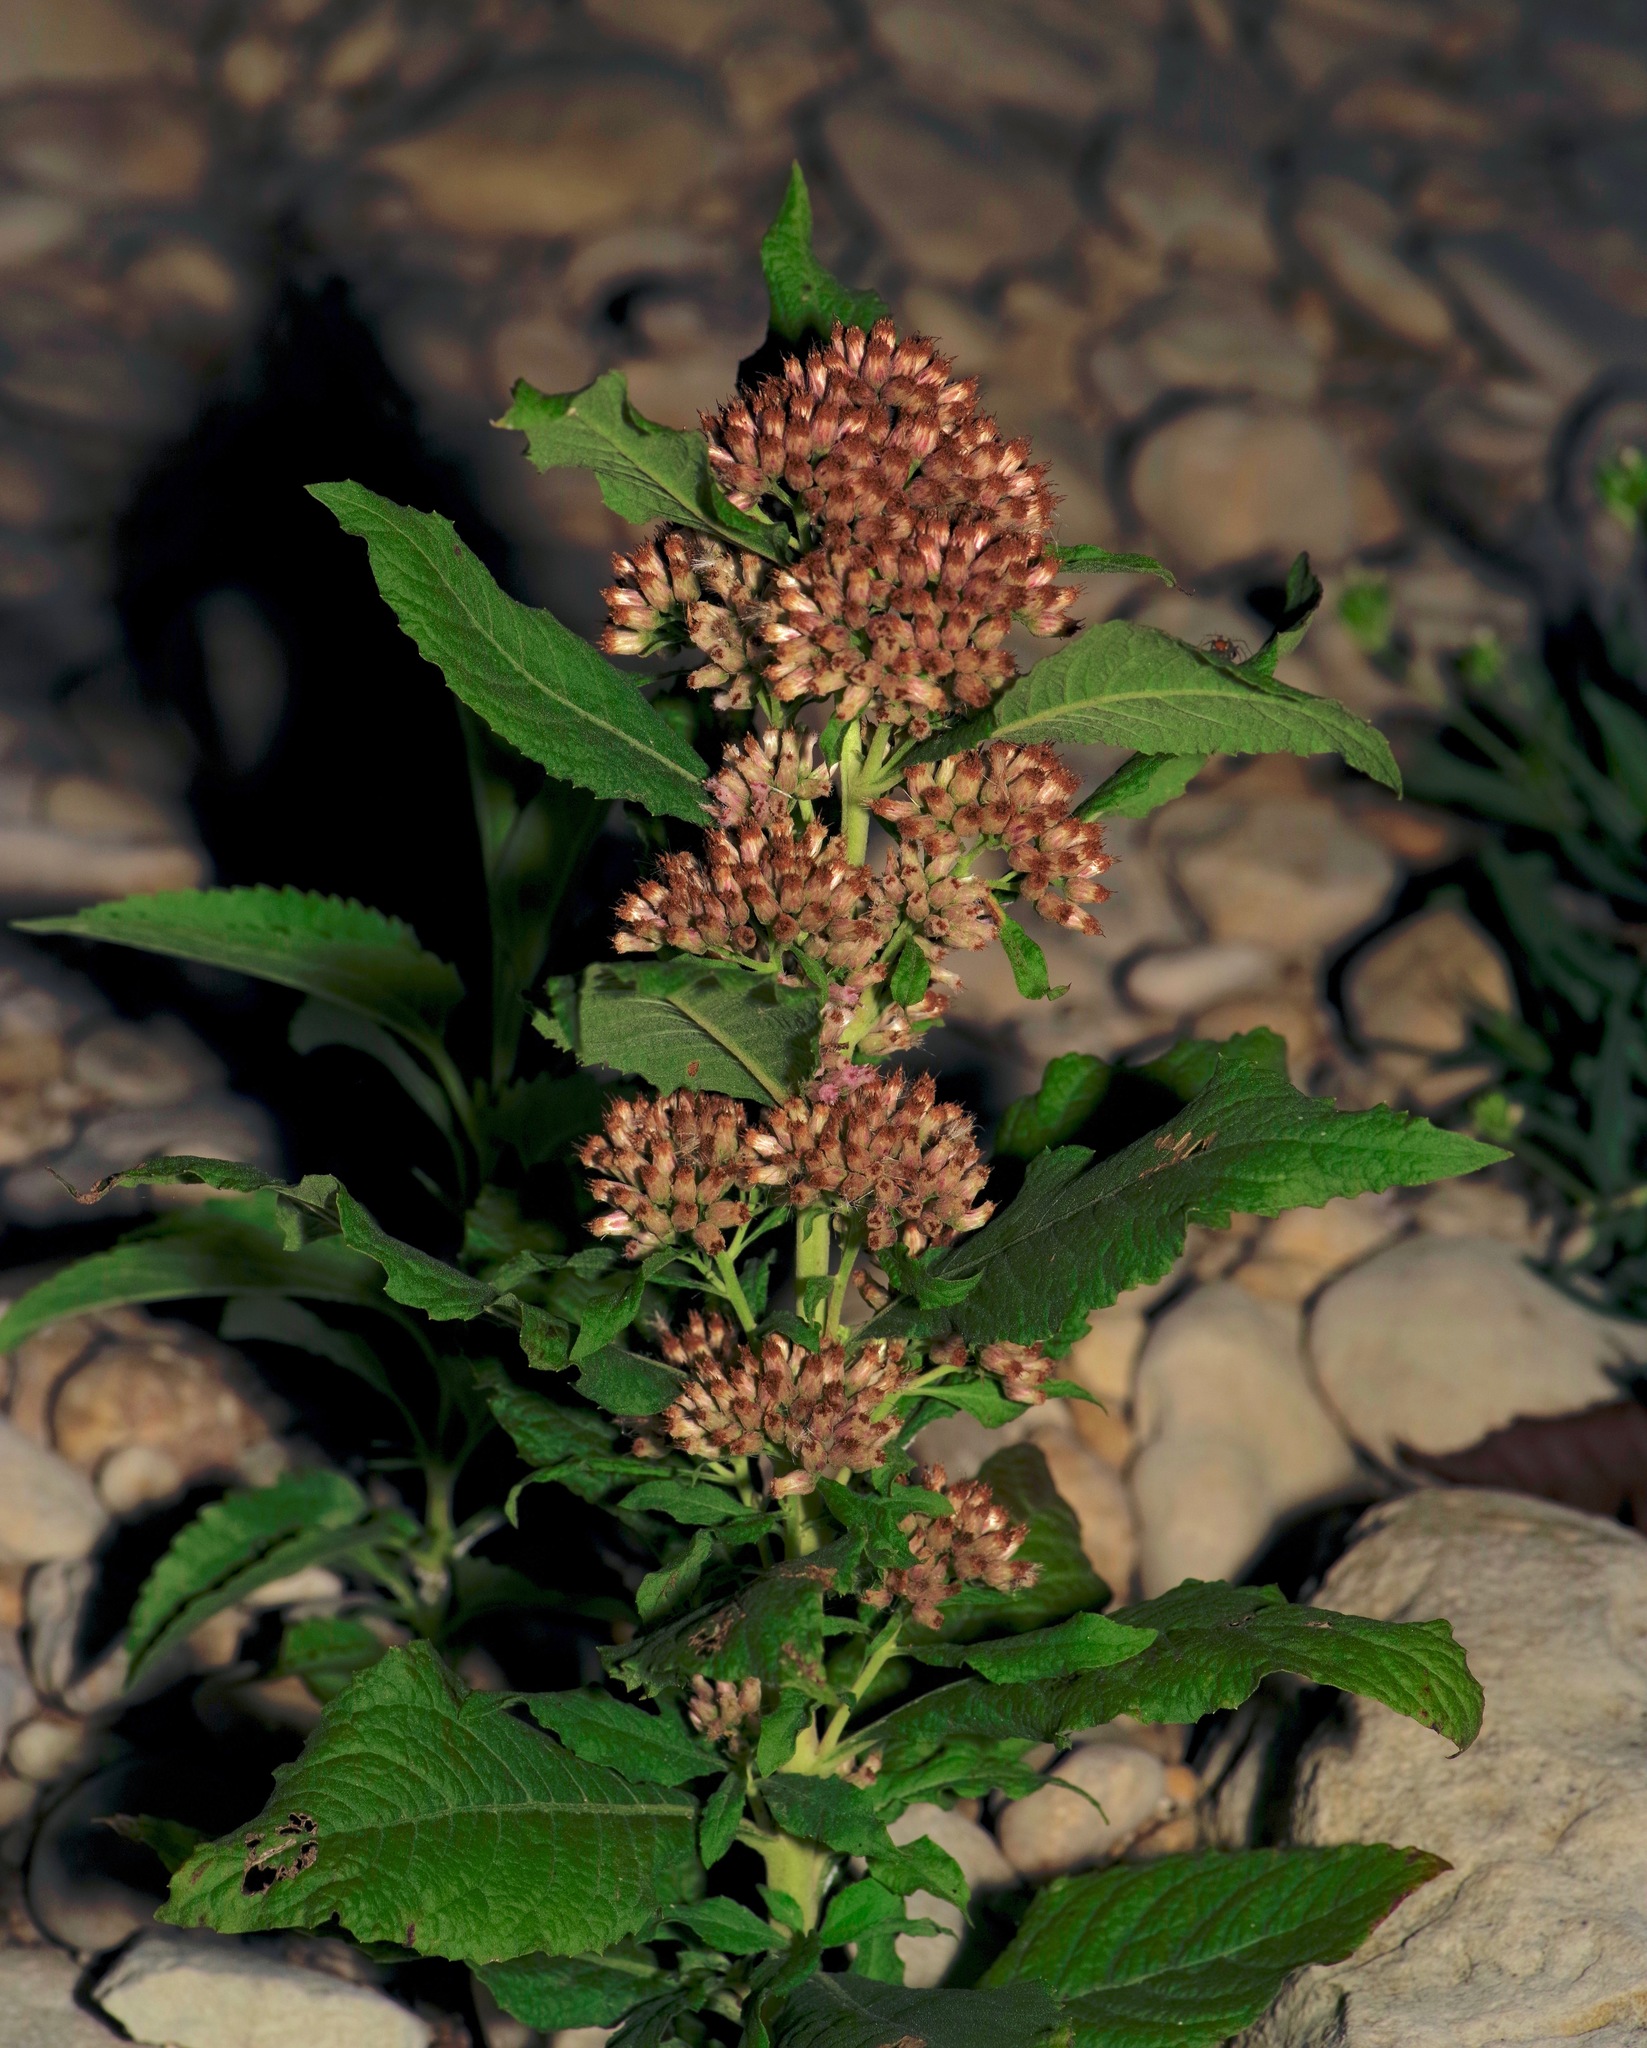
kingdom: Plantae
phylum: Tracheophyta
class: Magnoliopsida
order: Asterales
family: Asteraceae
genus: Pluchea
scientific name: Pluchea camphorata
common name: Camphor pluchea
